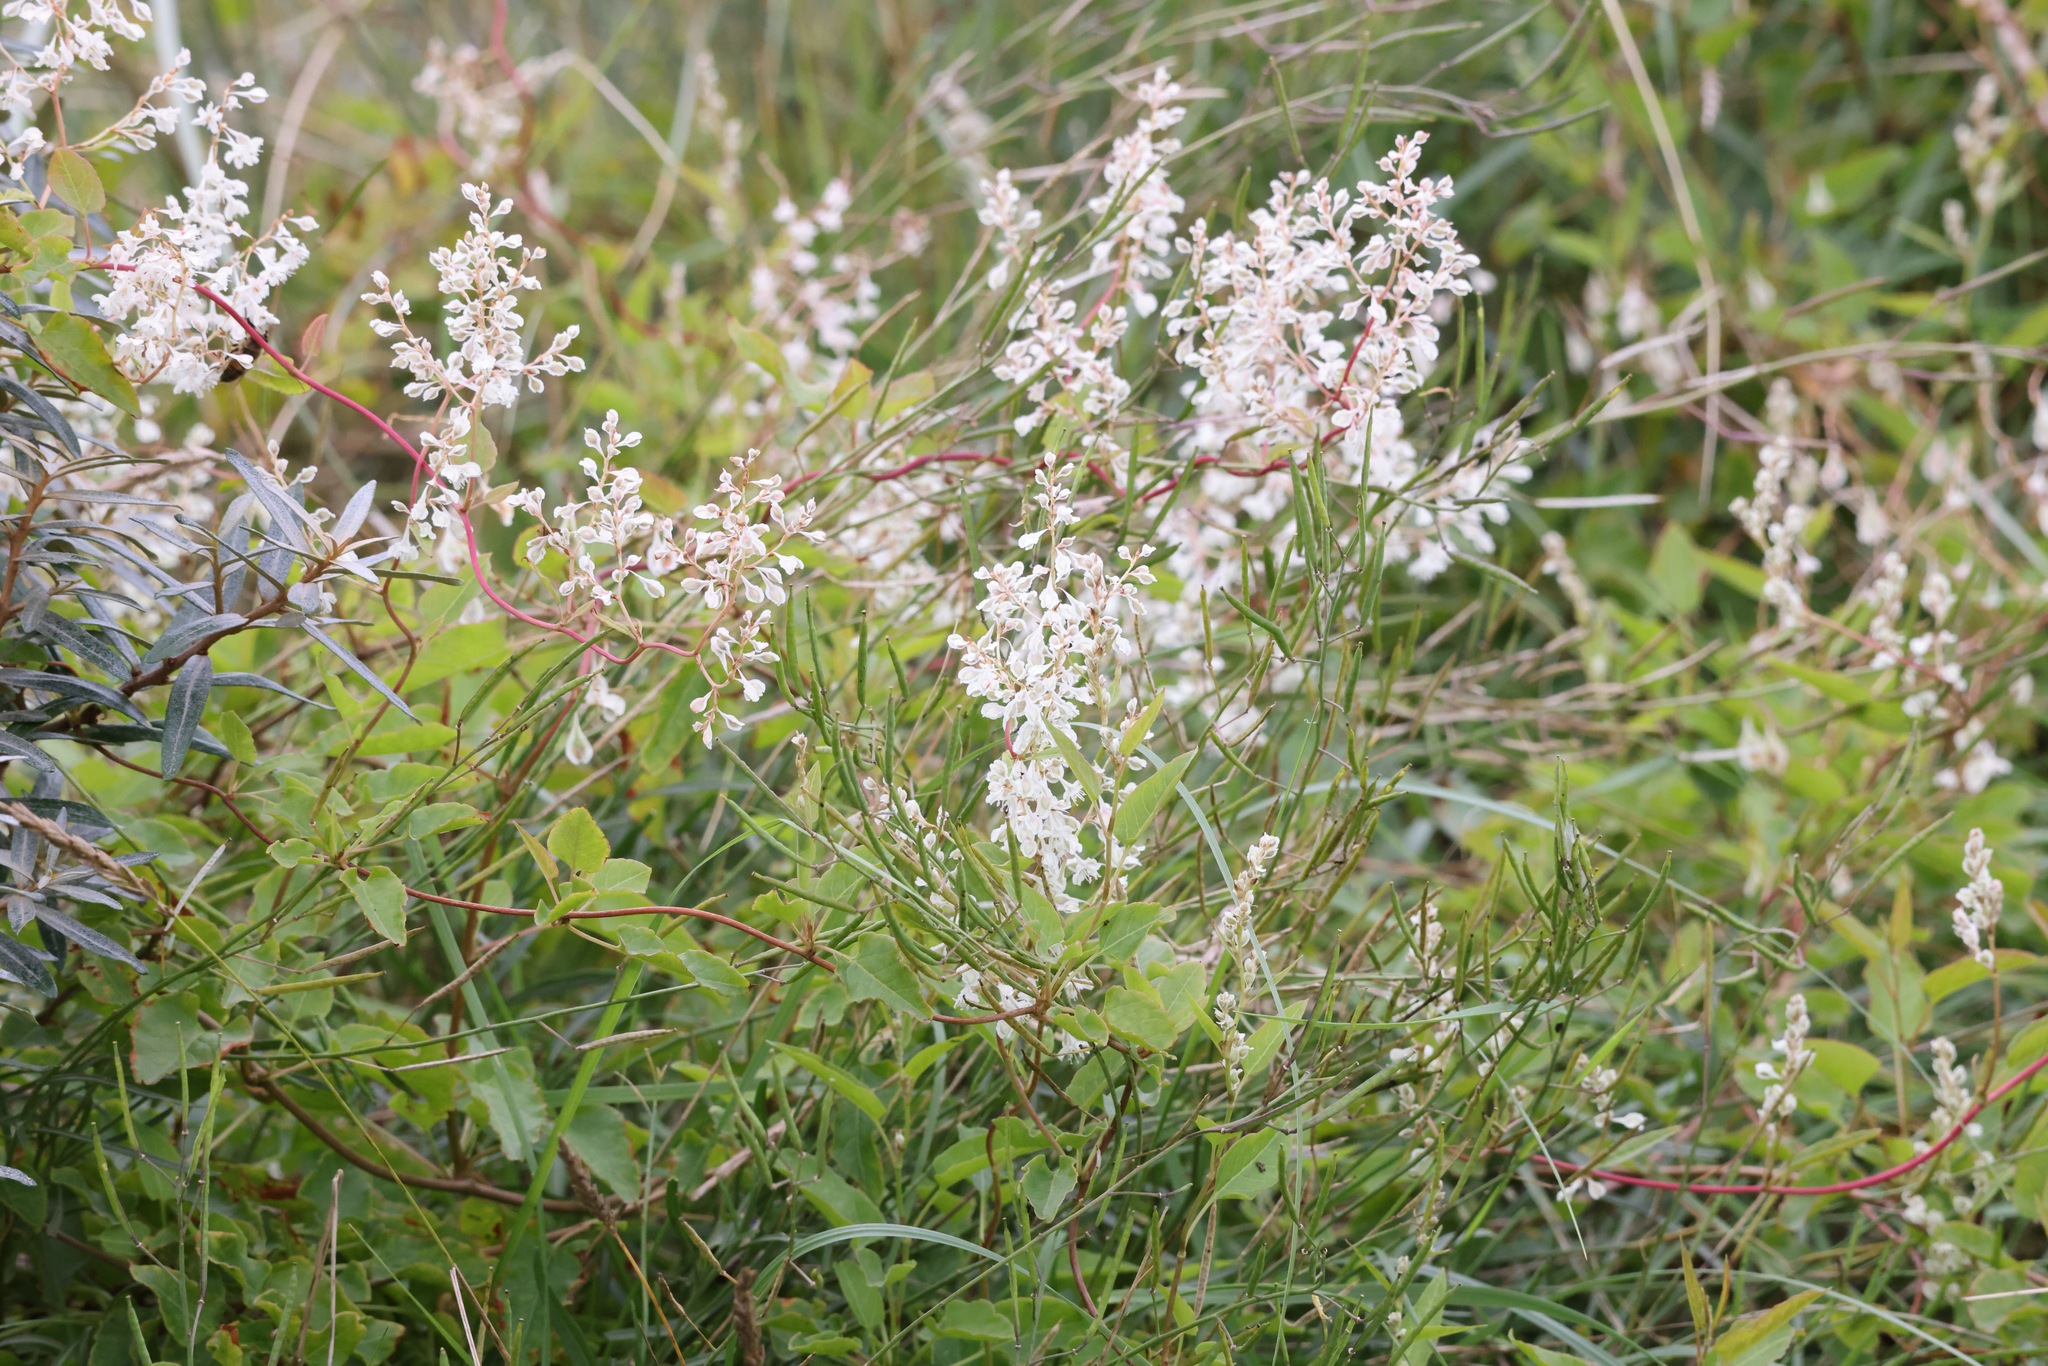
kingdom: Plantae
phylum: Tracheophyta
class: Magnoliopsida
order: Caryophyllales
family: Polygonaceae
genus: Fallopia
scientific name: Fallopia baldschuanica
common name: Russian-vine
